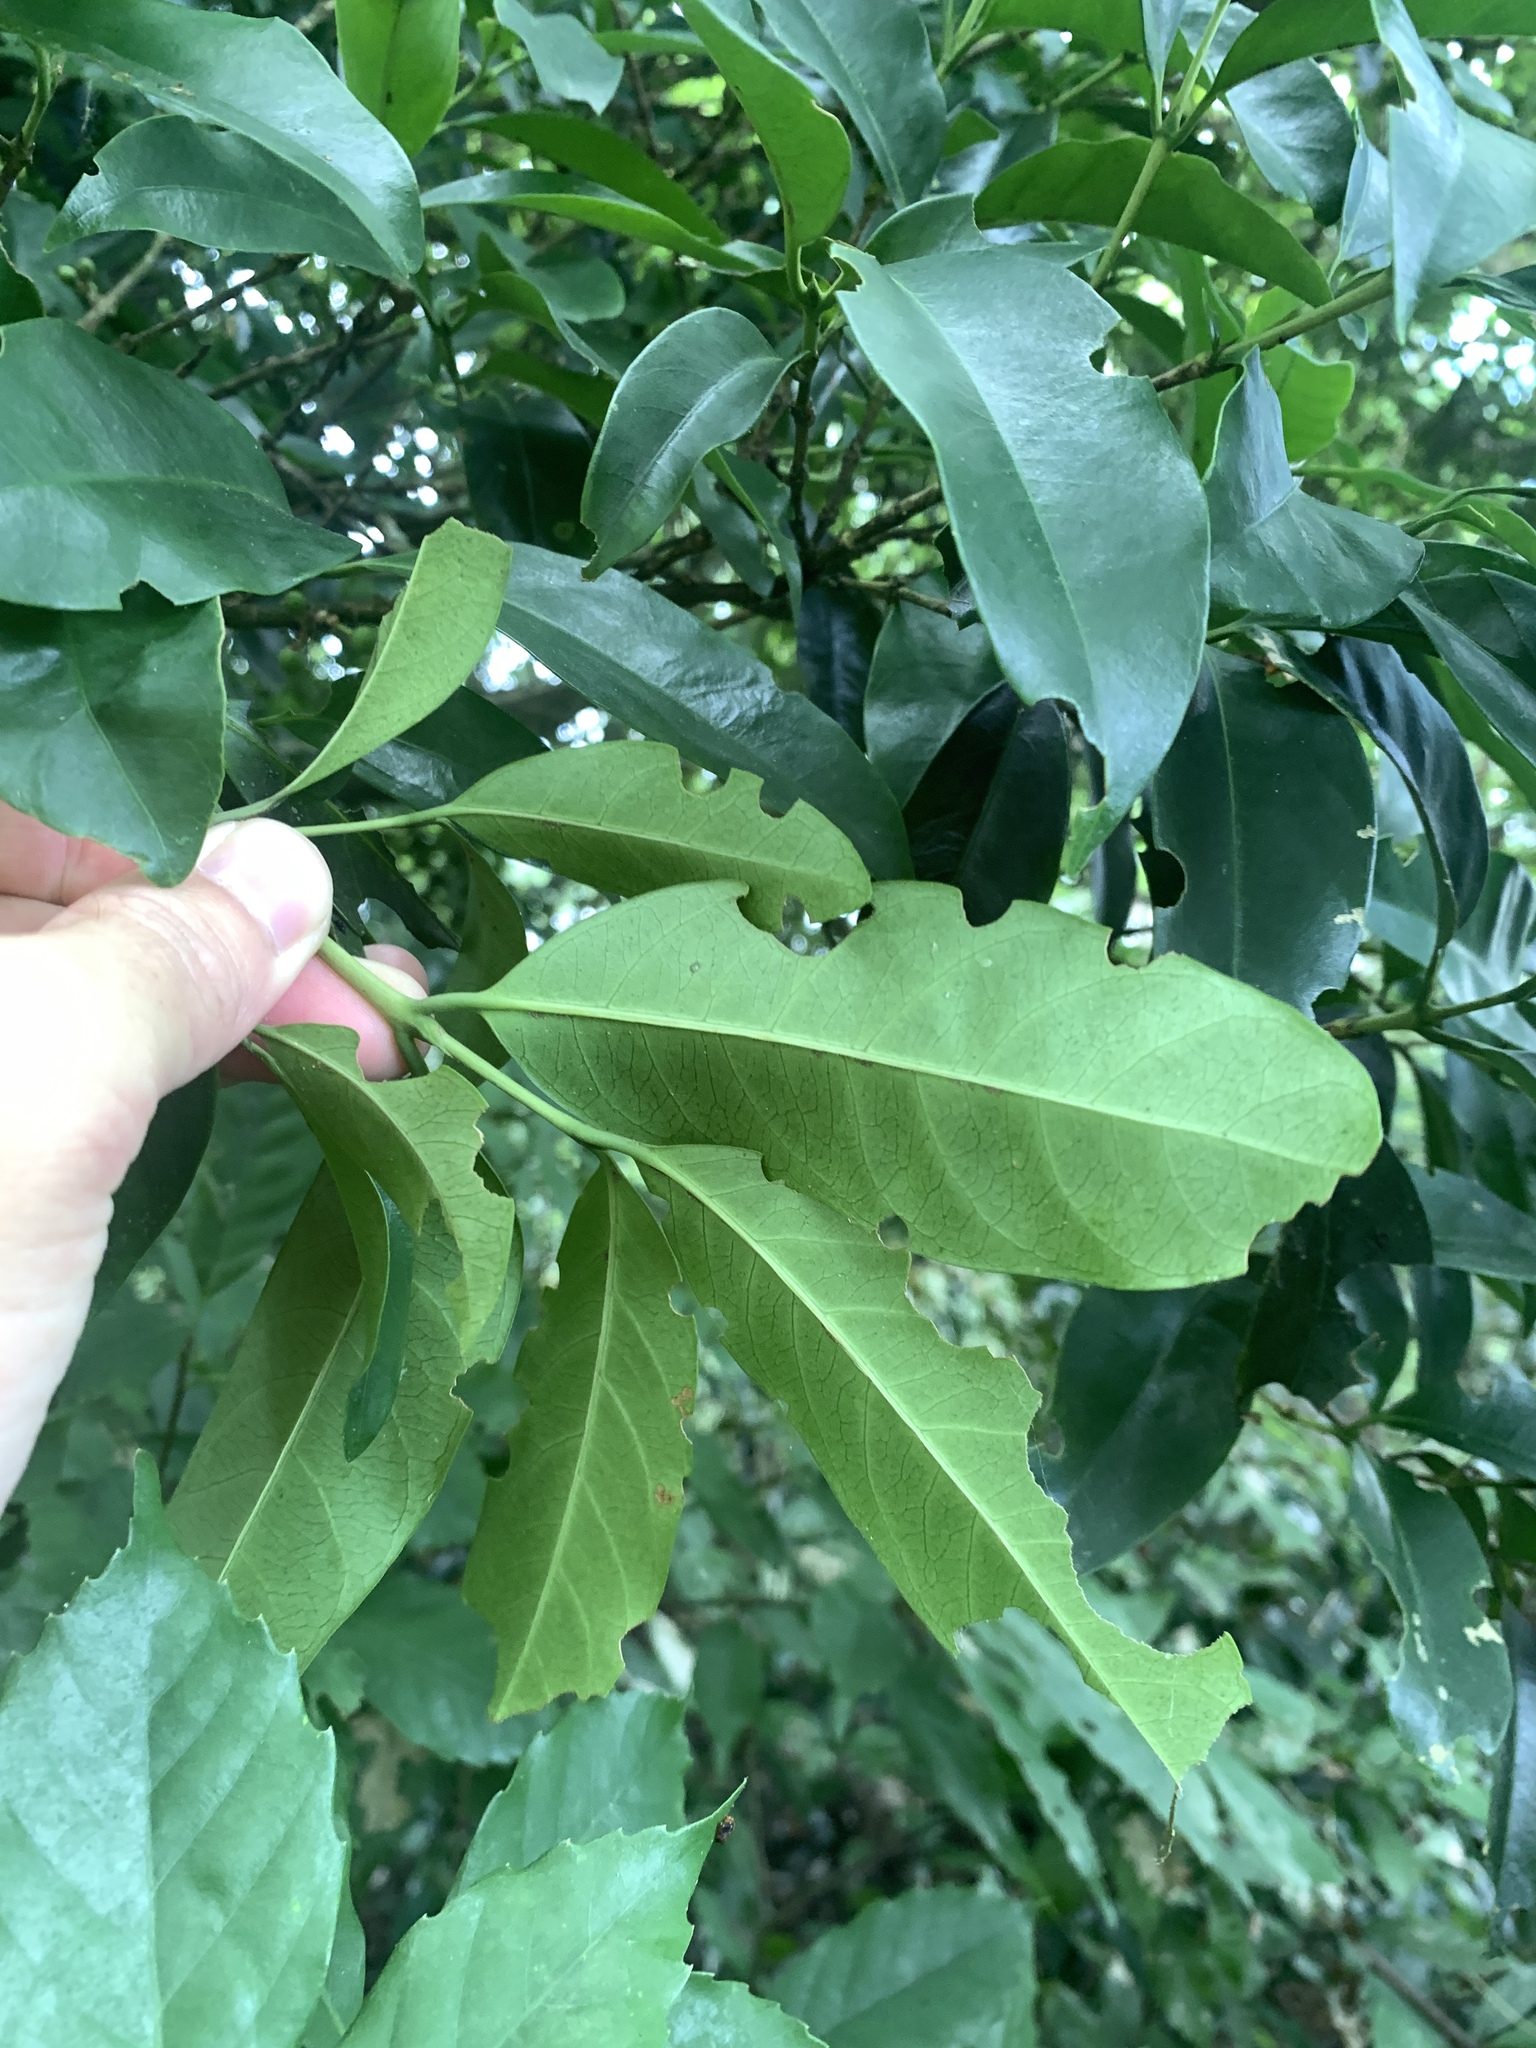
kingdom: Plantae
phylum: Tracheophyta
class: Magnoliopsida
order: Gentianales
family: Rubiaceae
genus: Diplospora
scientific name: Diplospora dubia
